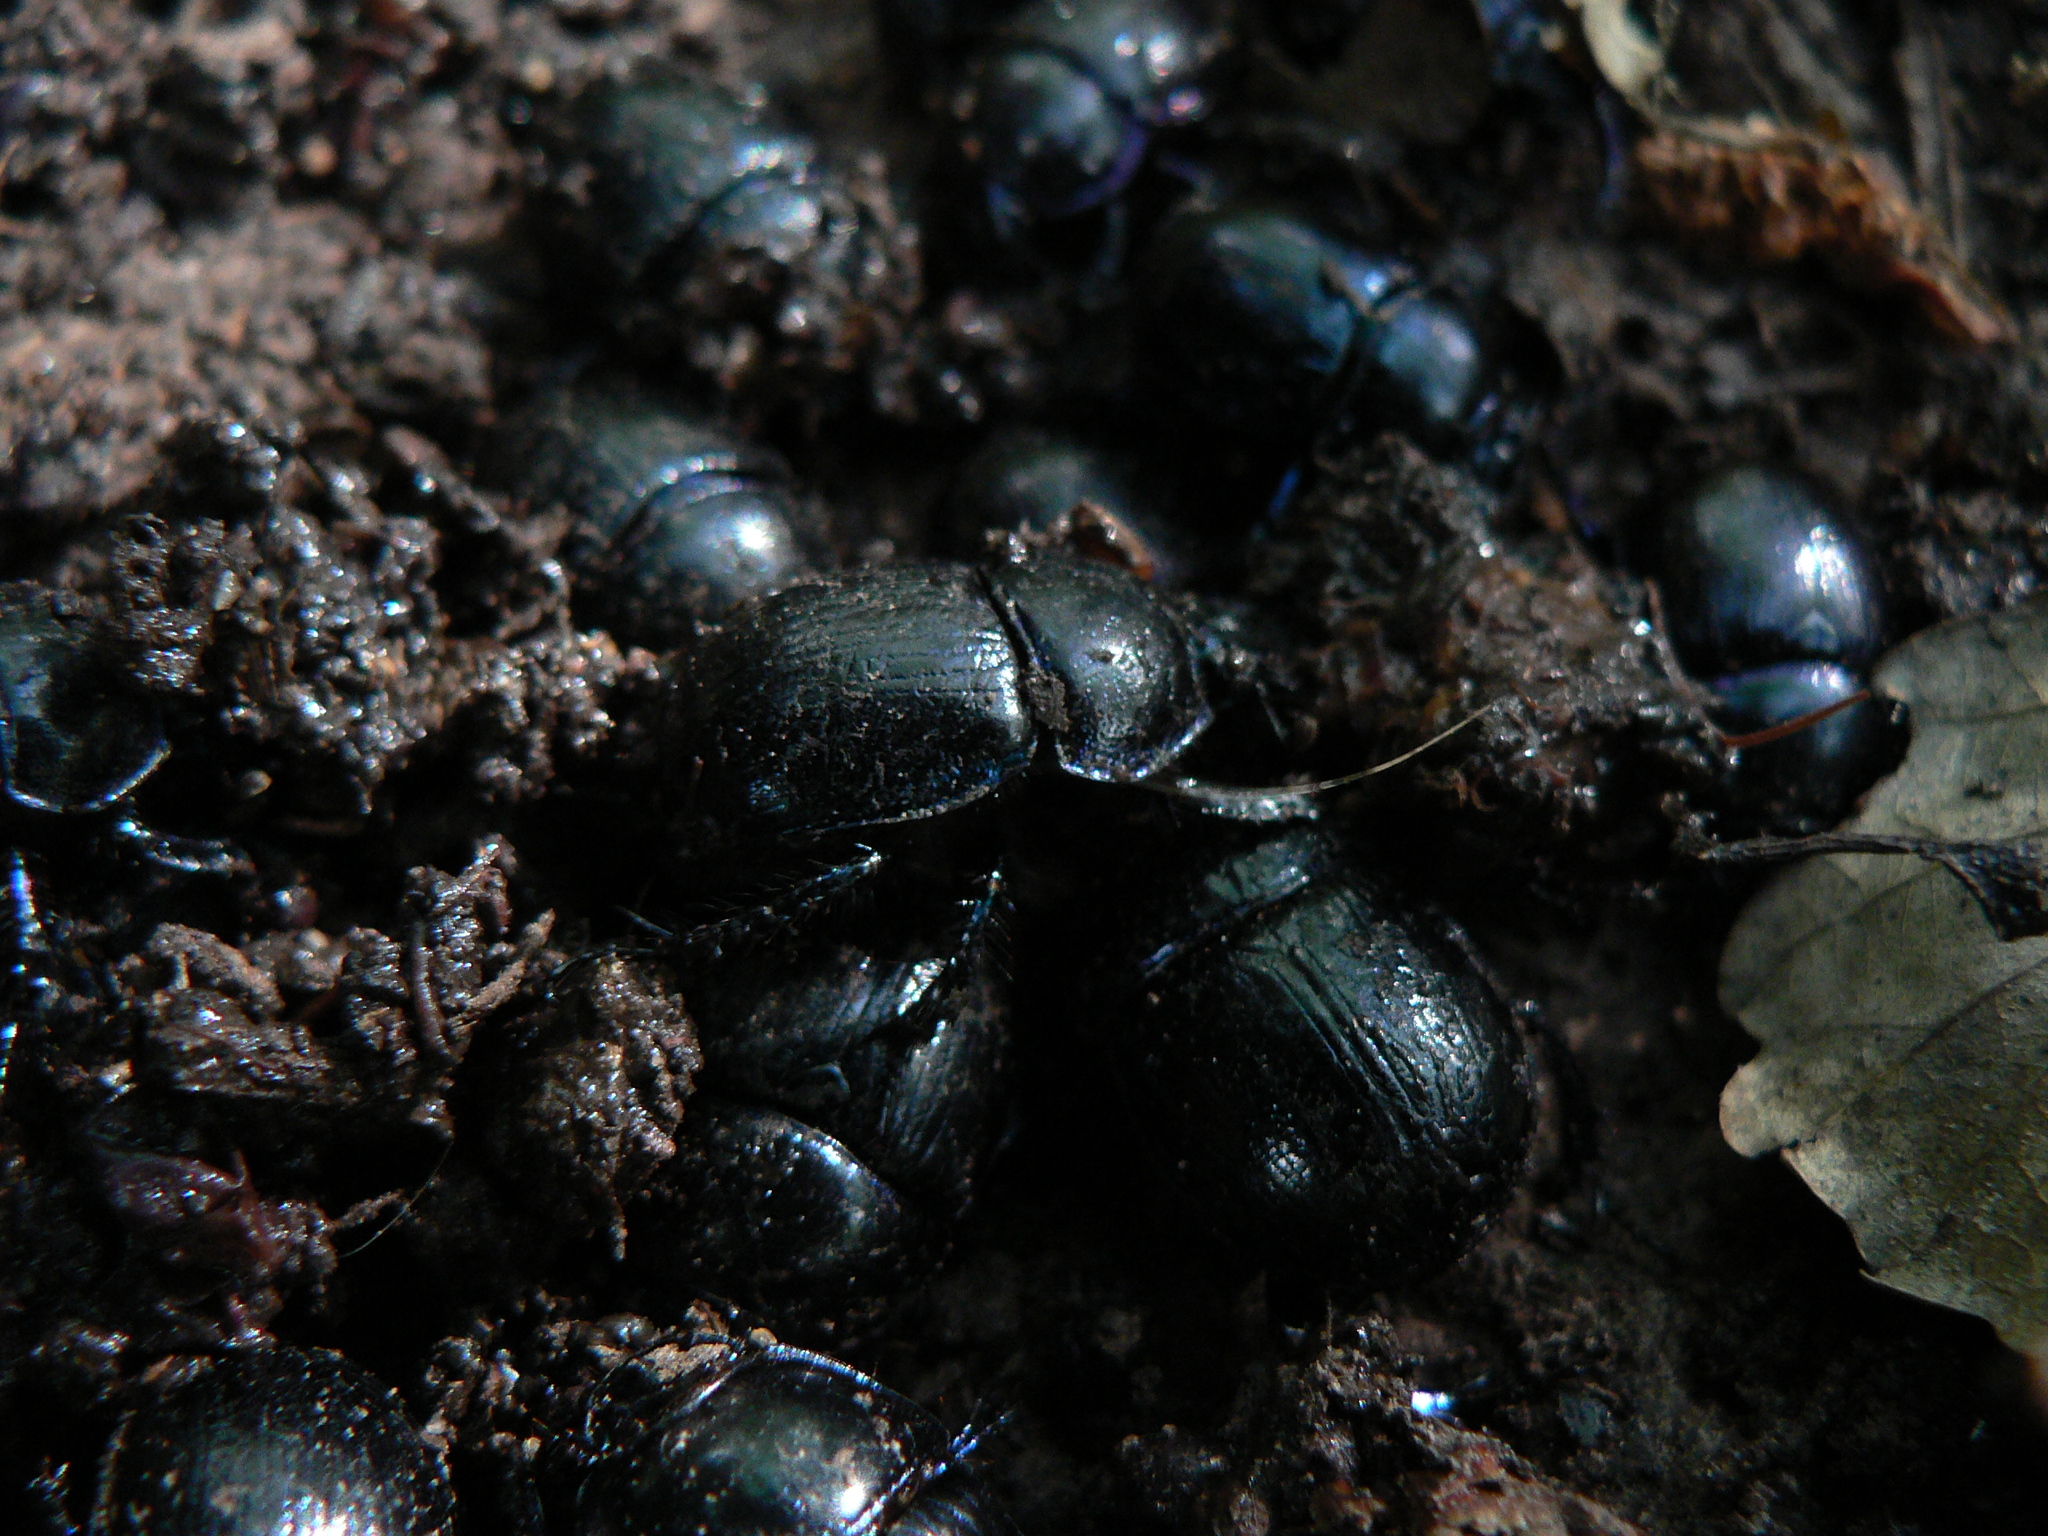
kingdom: Animalia
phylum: Arthropoda
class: Insecta
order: Coleoptera
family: Geotrupidae
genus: Anoplotrupes
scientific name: Anoplotrupes stercorosus
